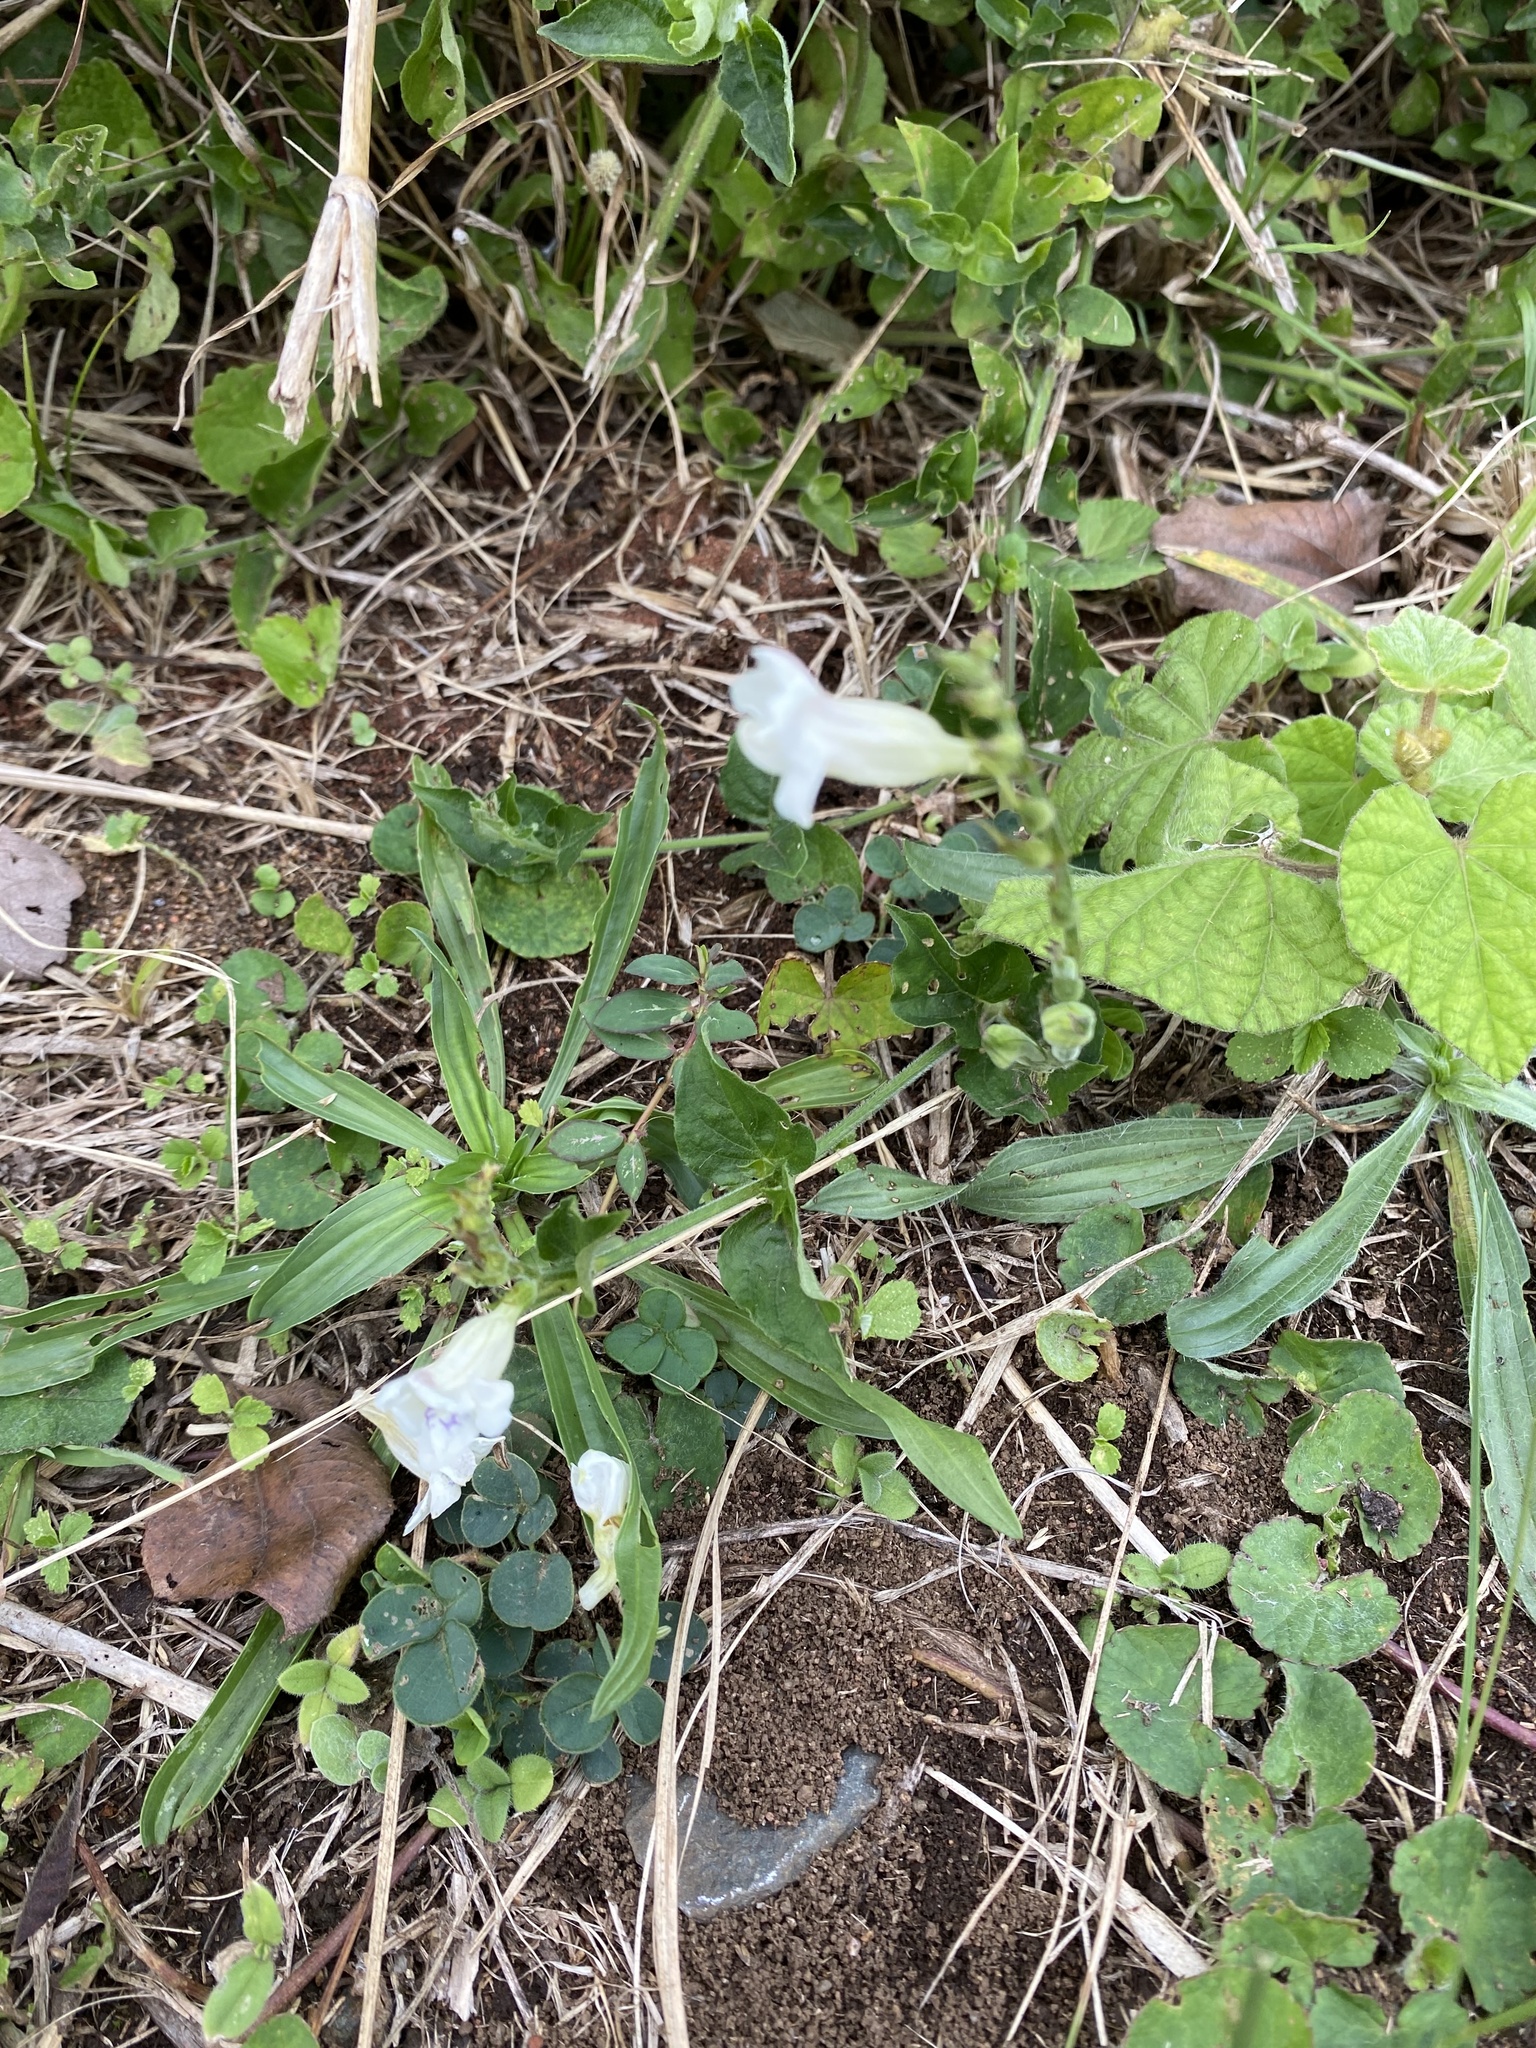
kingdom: Plantae
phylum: Tracheophyta
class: Magnoliopsida
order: Lamiales
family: Acanthaceae
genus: Asystasia
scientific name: Asystasia intrusa
